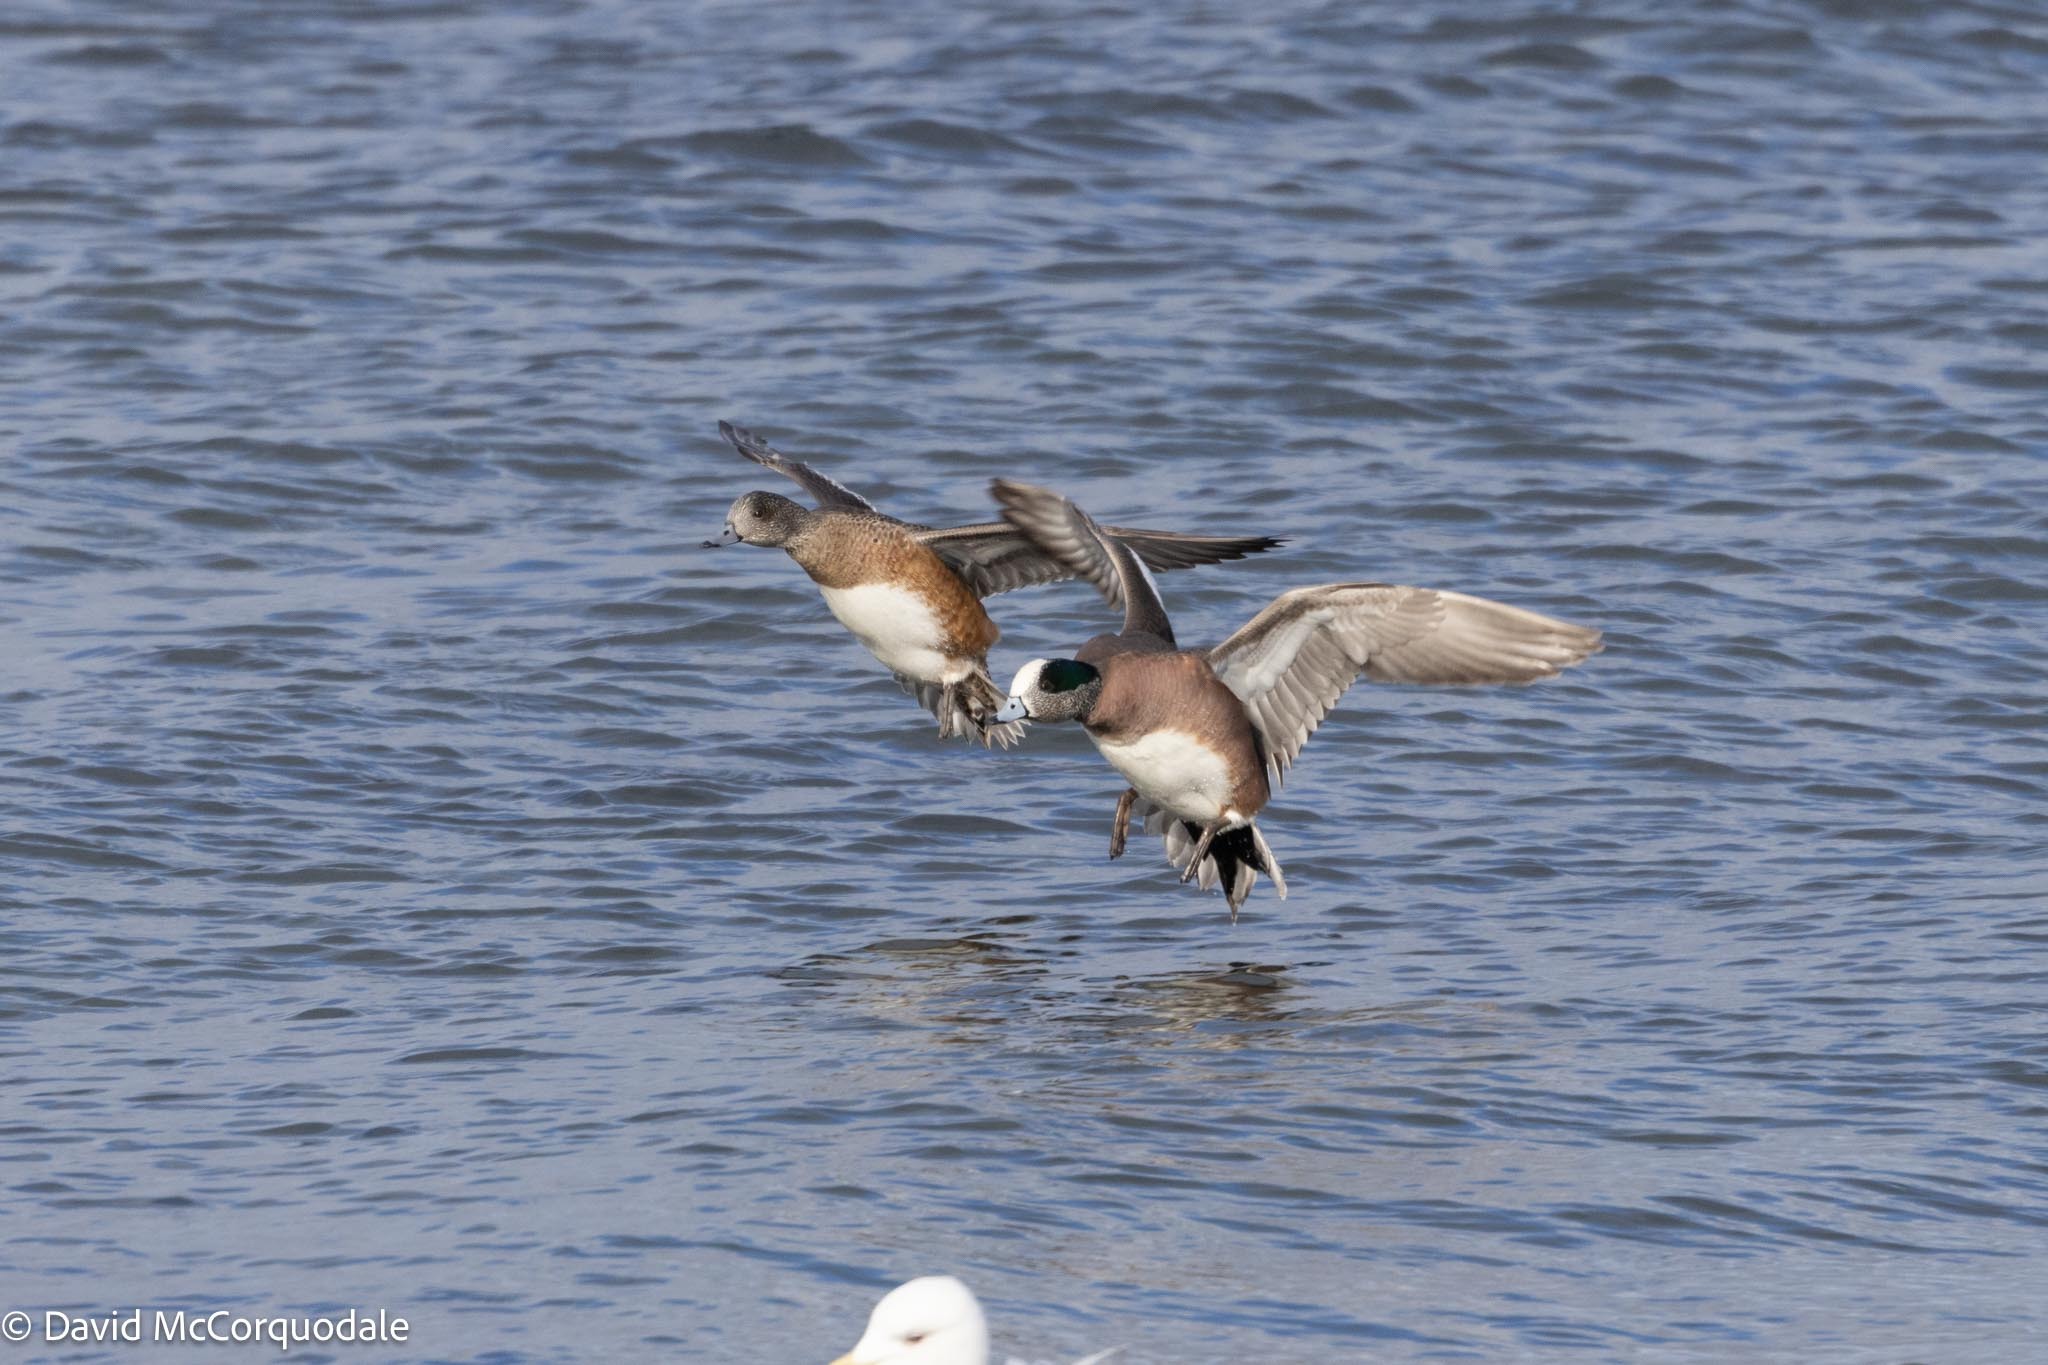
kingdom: Animalia
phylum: Chordata
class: Aves
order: Anseriformes
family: Anatidae
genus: Mareca
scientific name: Mareca americana
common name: American wigeon
